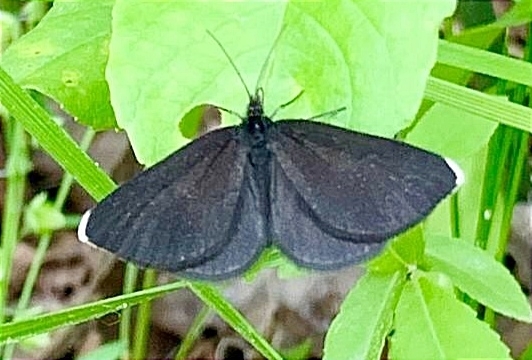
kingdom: Animalia
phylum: Arthropoda
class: Insecta
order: Lepidoptera
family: Geometridae
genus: Odezia
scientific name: Odezia atrata
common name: Chimney sweeper
